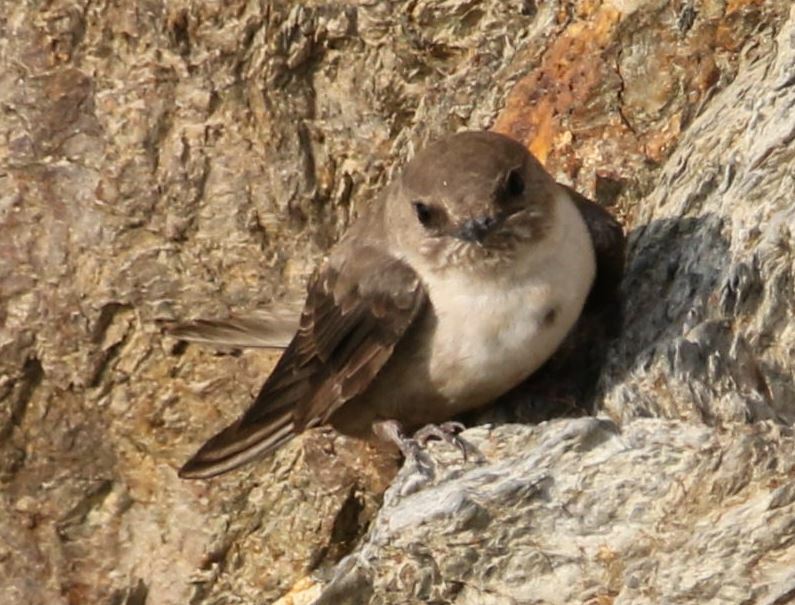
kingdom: Animalia
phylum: Chordata
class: Aves
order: Passeriformes
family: Hirundinidae
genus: Ptyonoprogne
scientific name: Ptyonoprogne rupestris
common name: Eurasian crag martin
